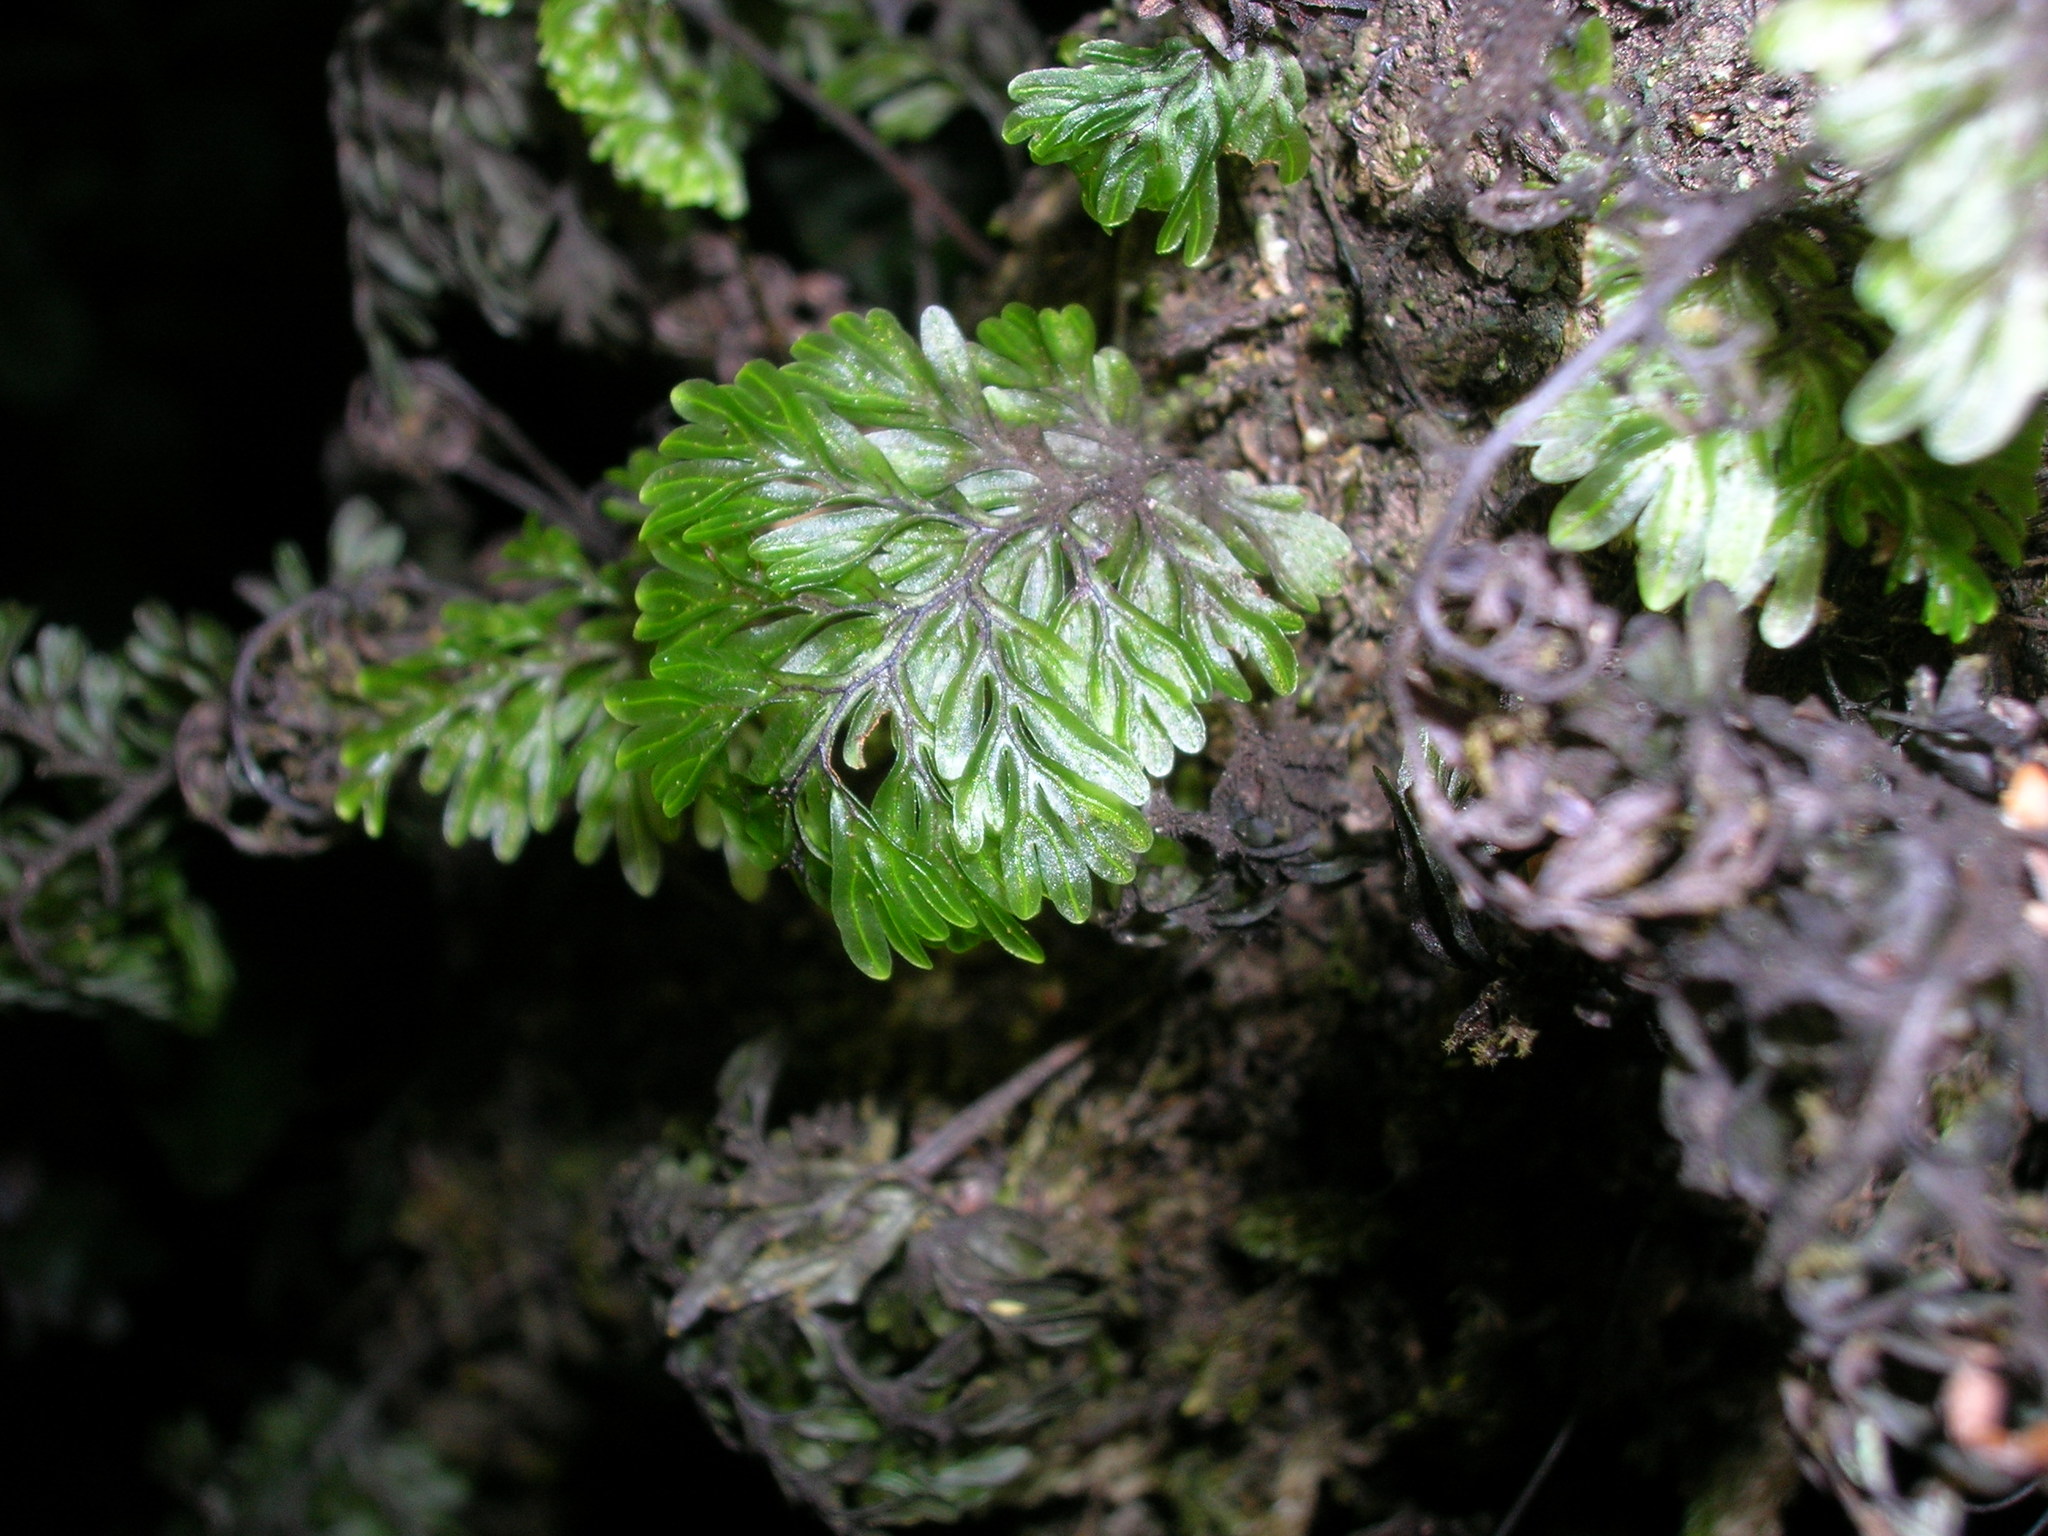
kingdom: Plantae
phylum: Tracheophyta
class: Polypodiopsida
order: Hymenophyllales
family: Hymenophyllaceae
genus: Hymenophyllum
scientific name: Hymenophyllum sanguinolentum
